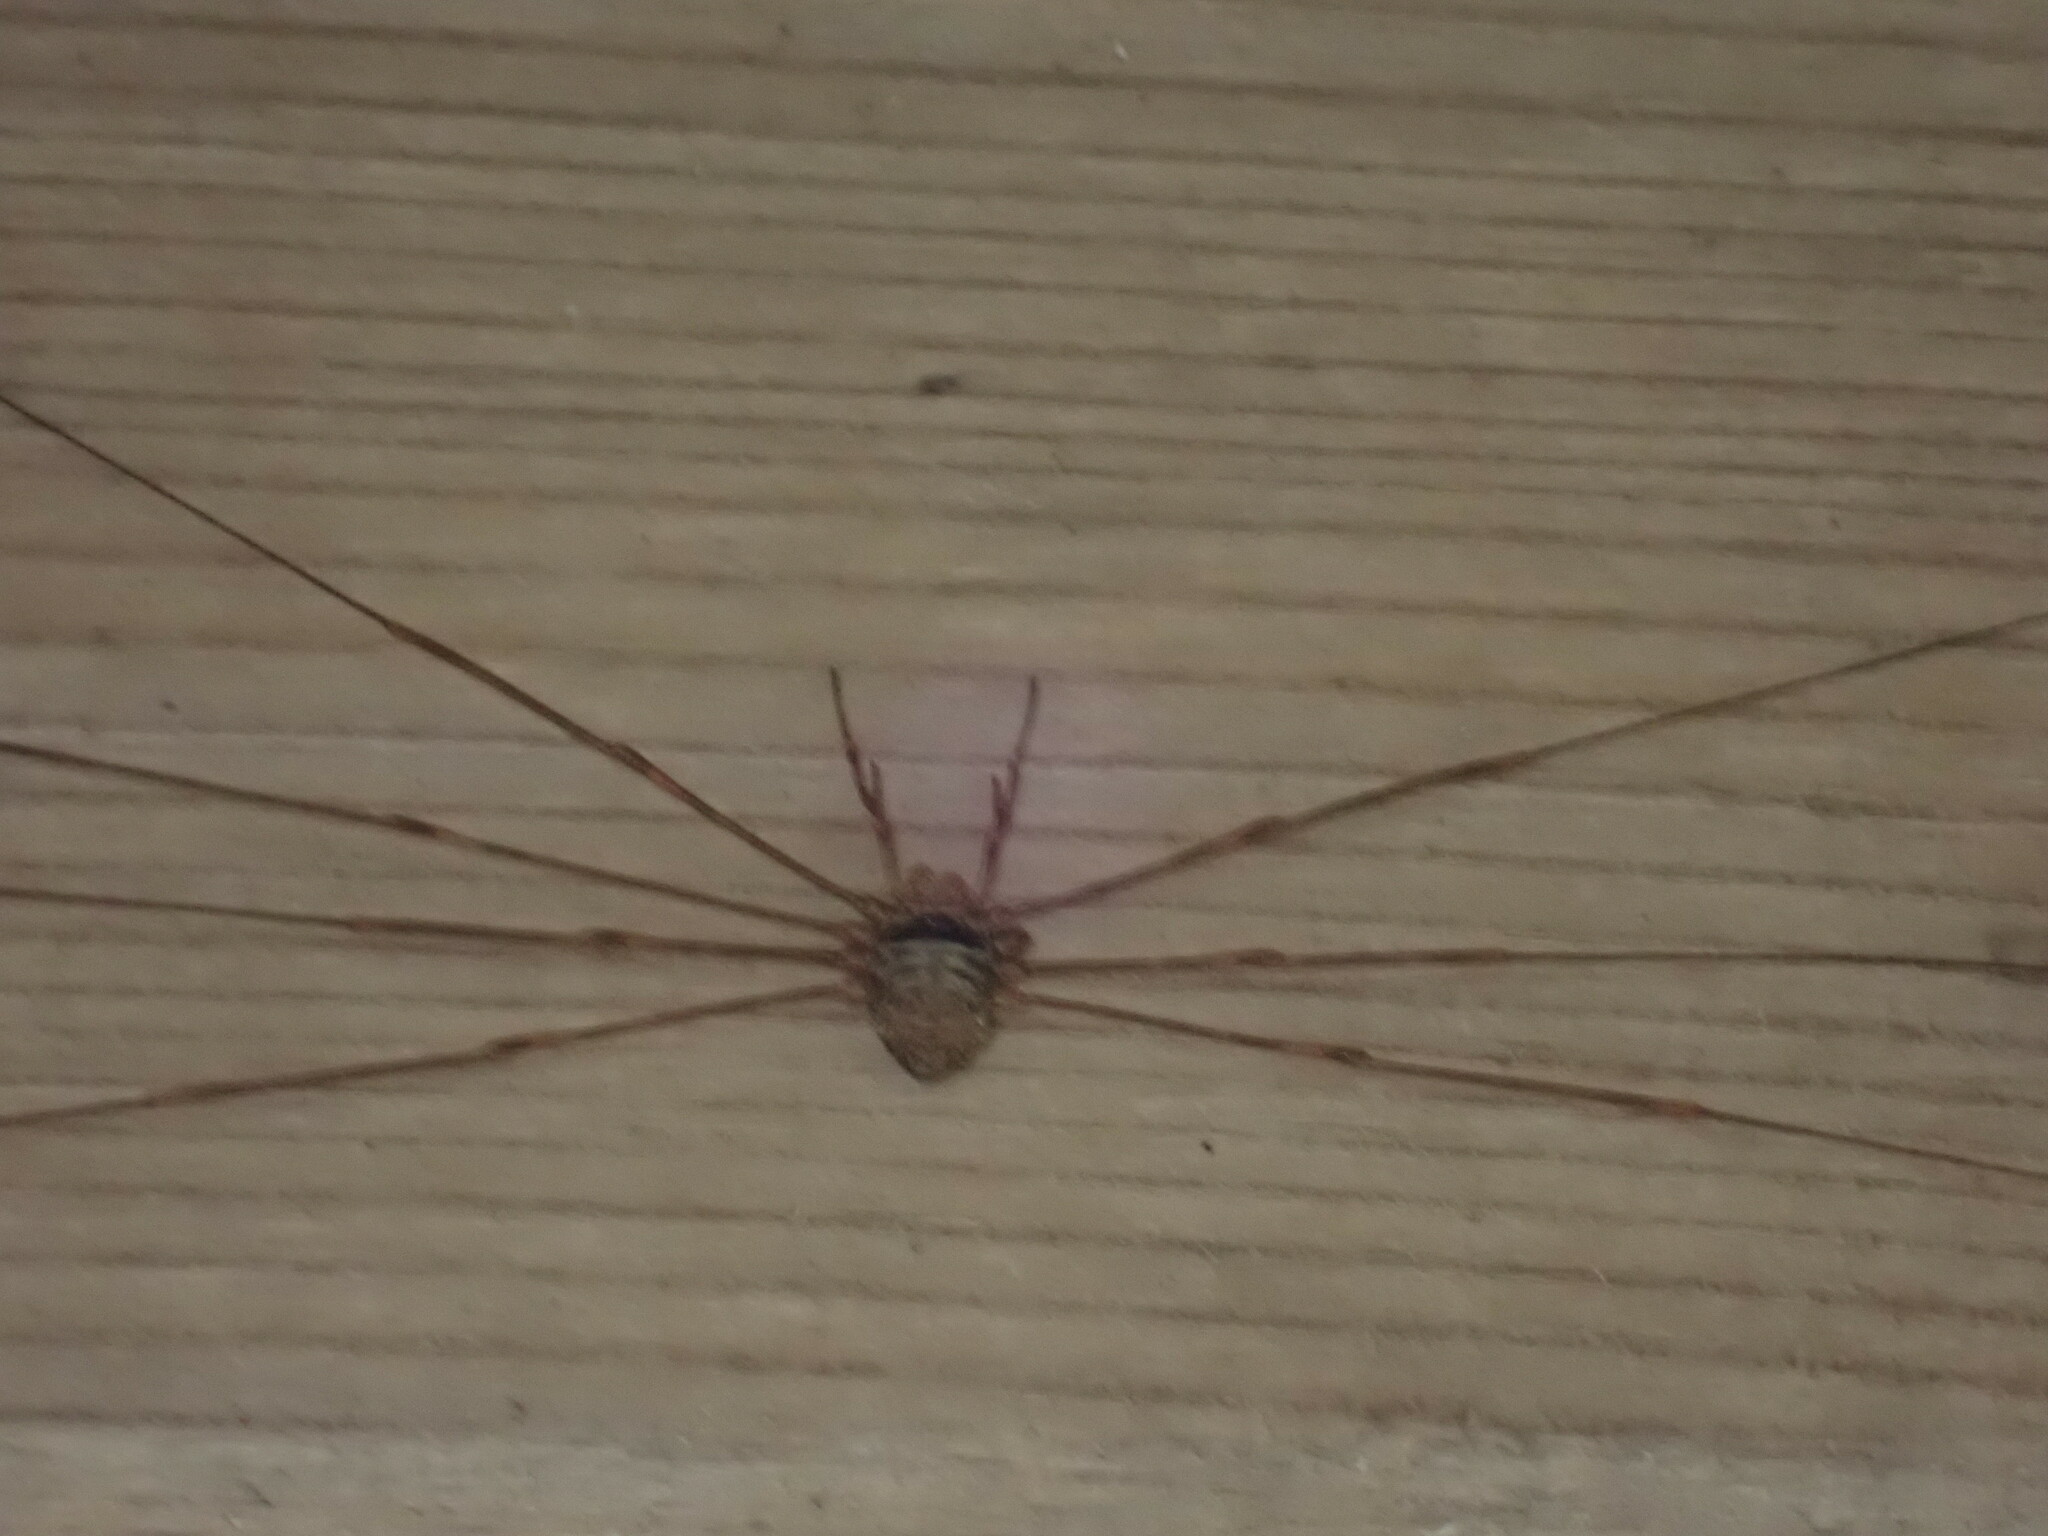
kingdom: Animalia
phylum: Arthropoda
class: Arachnida
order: Opiliones
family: Phalangiidae
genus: Dicranopalpus
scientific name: Dicranopalpus ramosus
